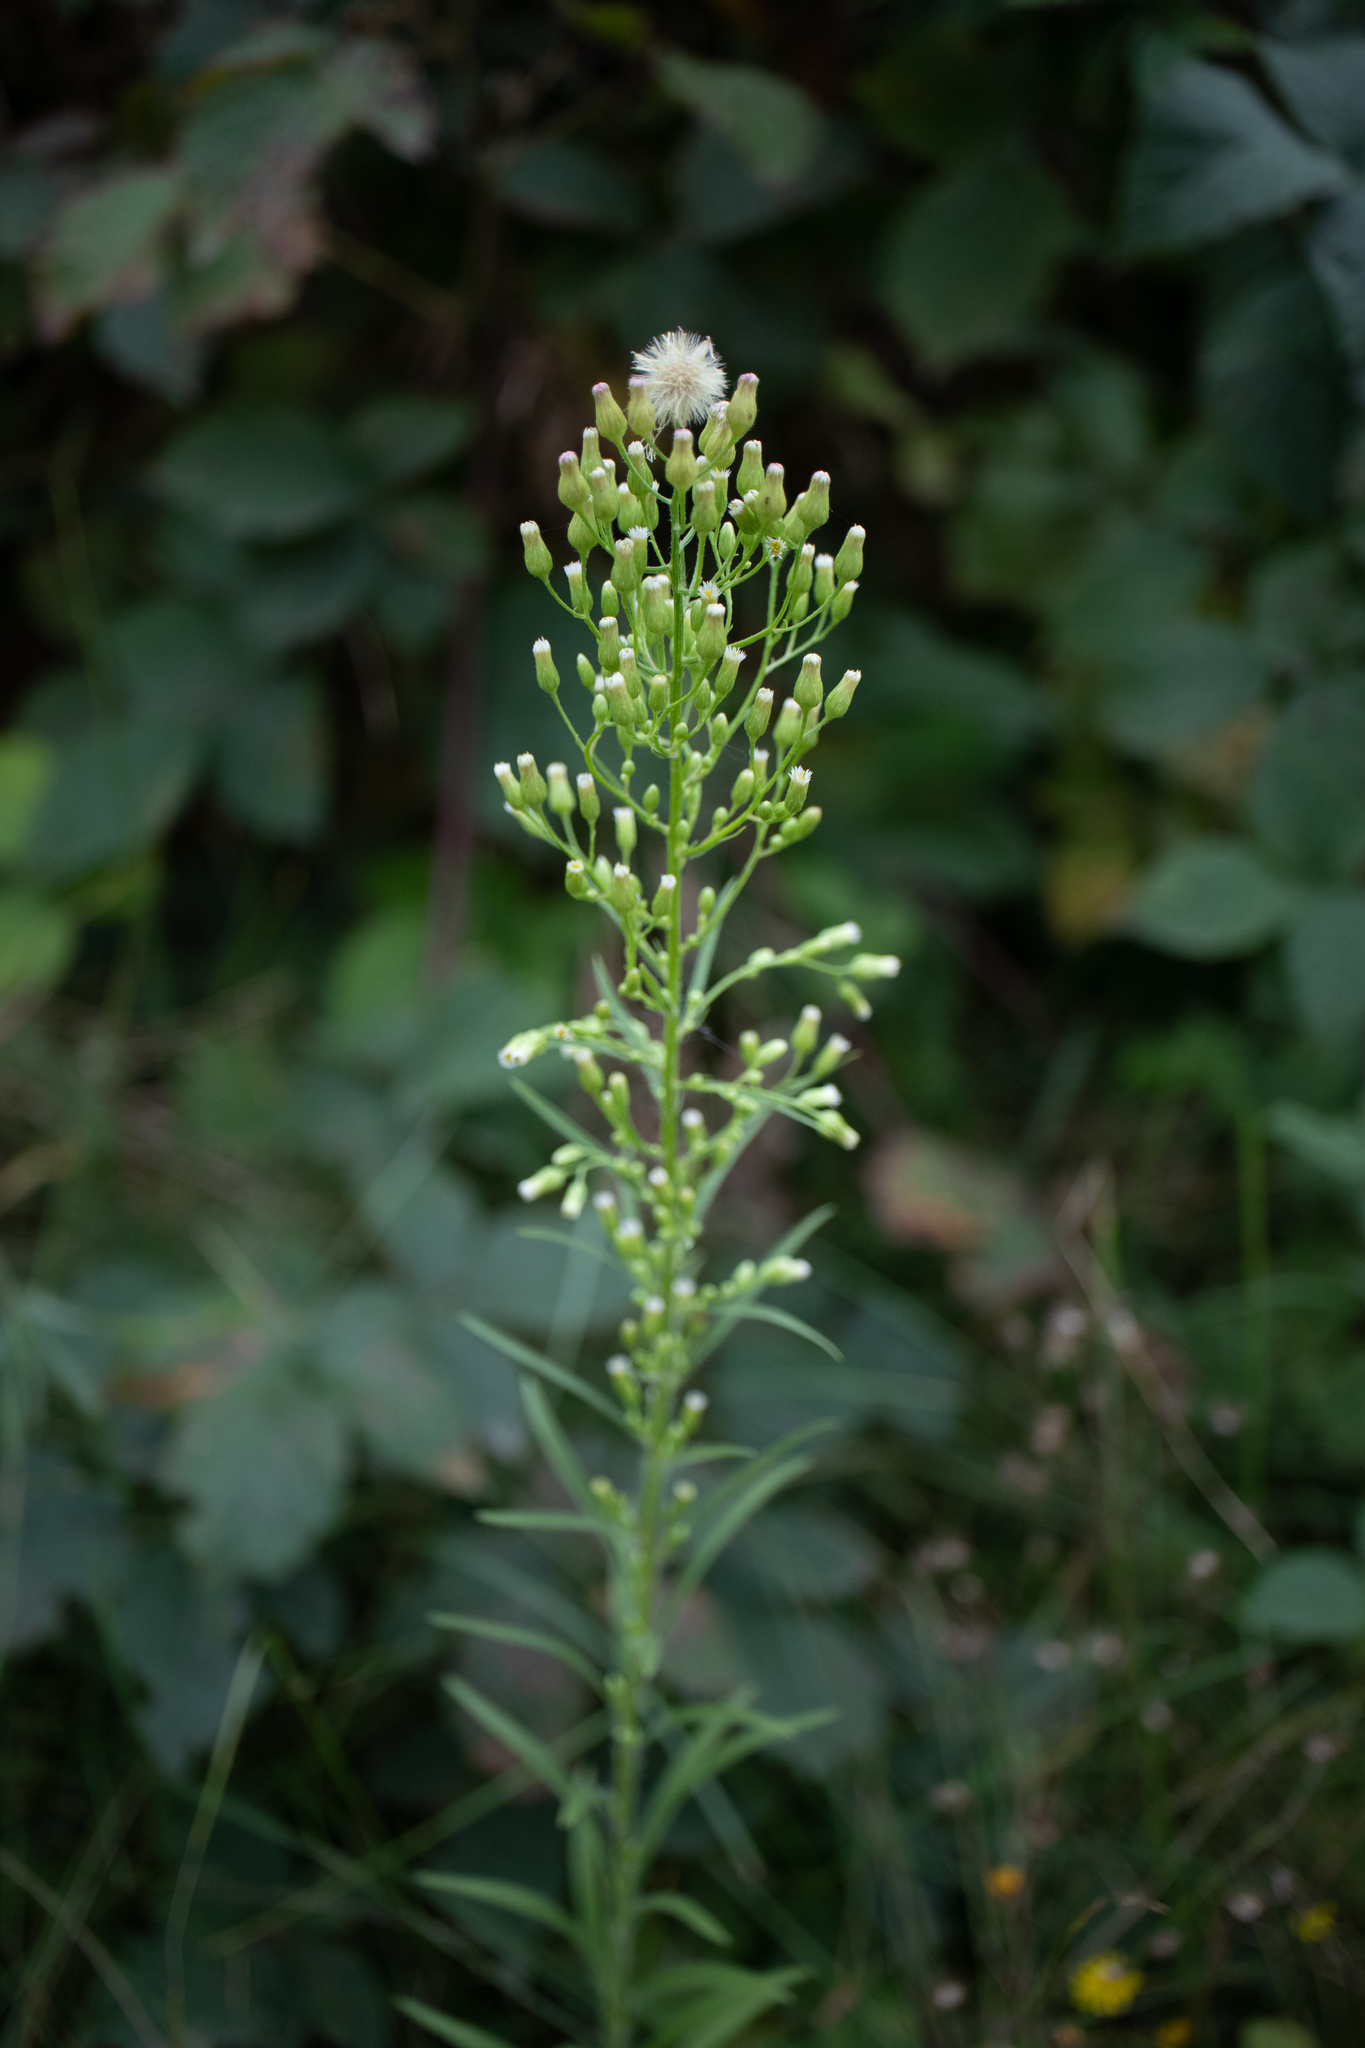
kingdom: Plantae
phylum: Tracheophyta
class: Magnoliopsida
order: Asterales
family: Asteraceae
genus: Erigeron
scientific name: Erigeron canadensis
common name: Canadian fleabane
